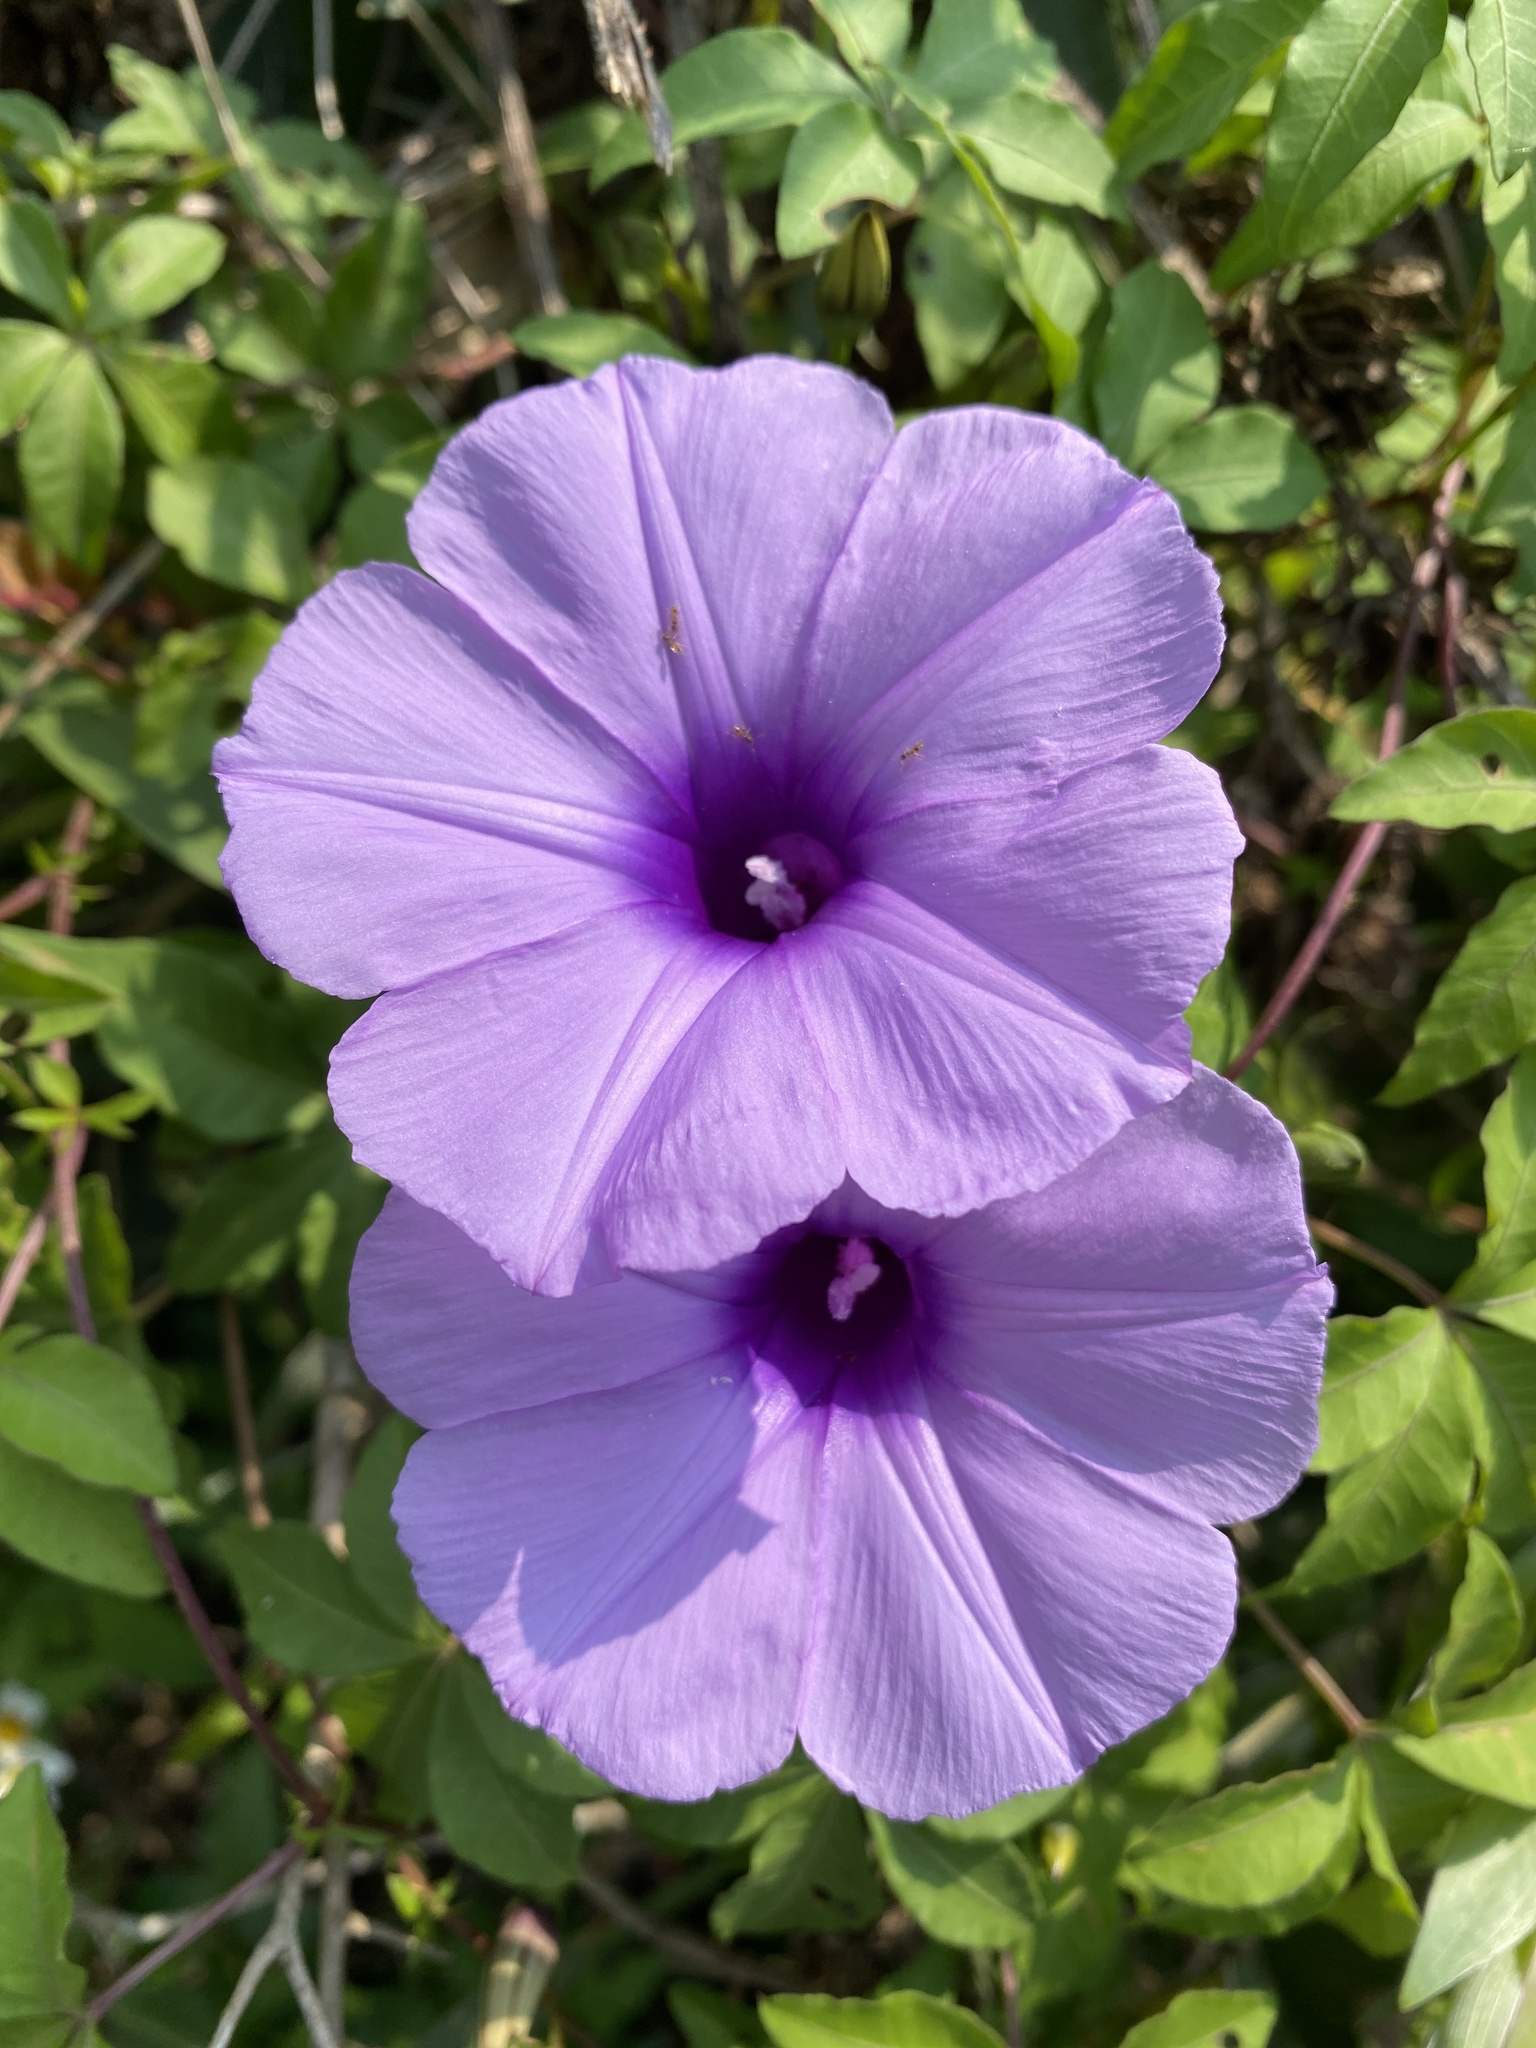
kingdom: Plantae
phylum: Tracheophyta
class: Magnoliopsida
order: Solanales
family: Convolvulaceae
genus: Ipomoea
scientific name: Ipomoea cairica
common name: Mile a minute vine
